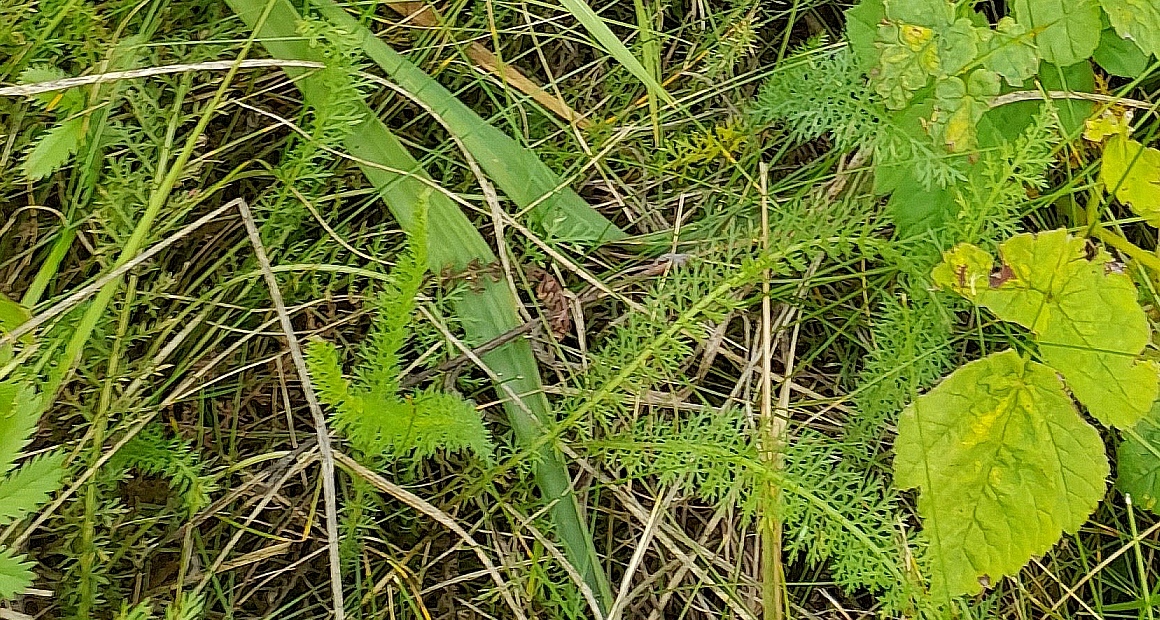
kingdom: Plantae
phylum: Tracheophyta
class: Magnoliopsida
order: Asterales
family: Asteraceae
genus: Achillea
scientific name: Achillea millefolium
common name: Yarrow
